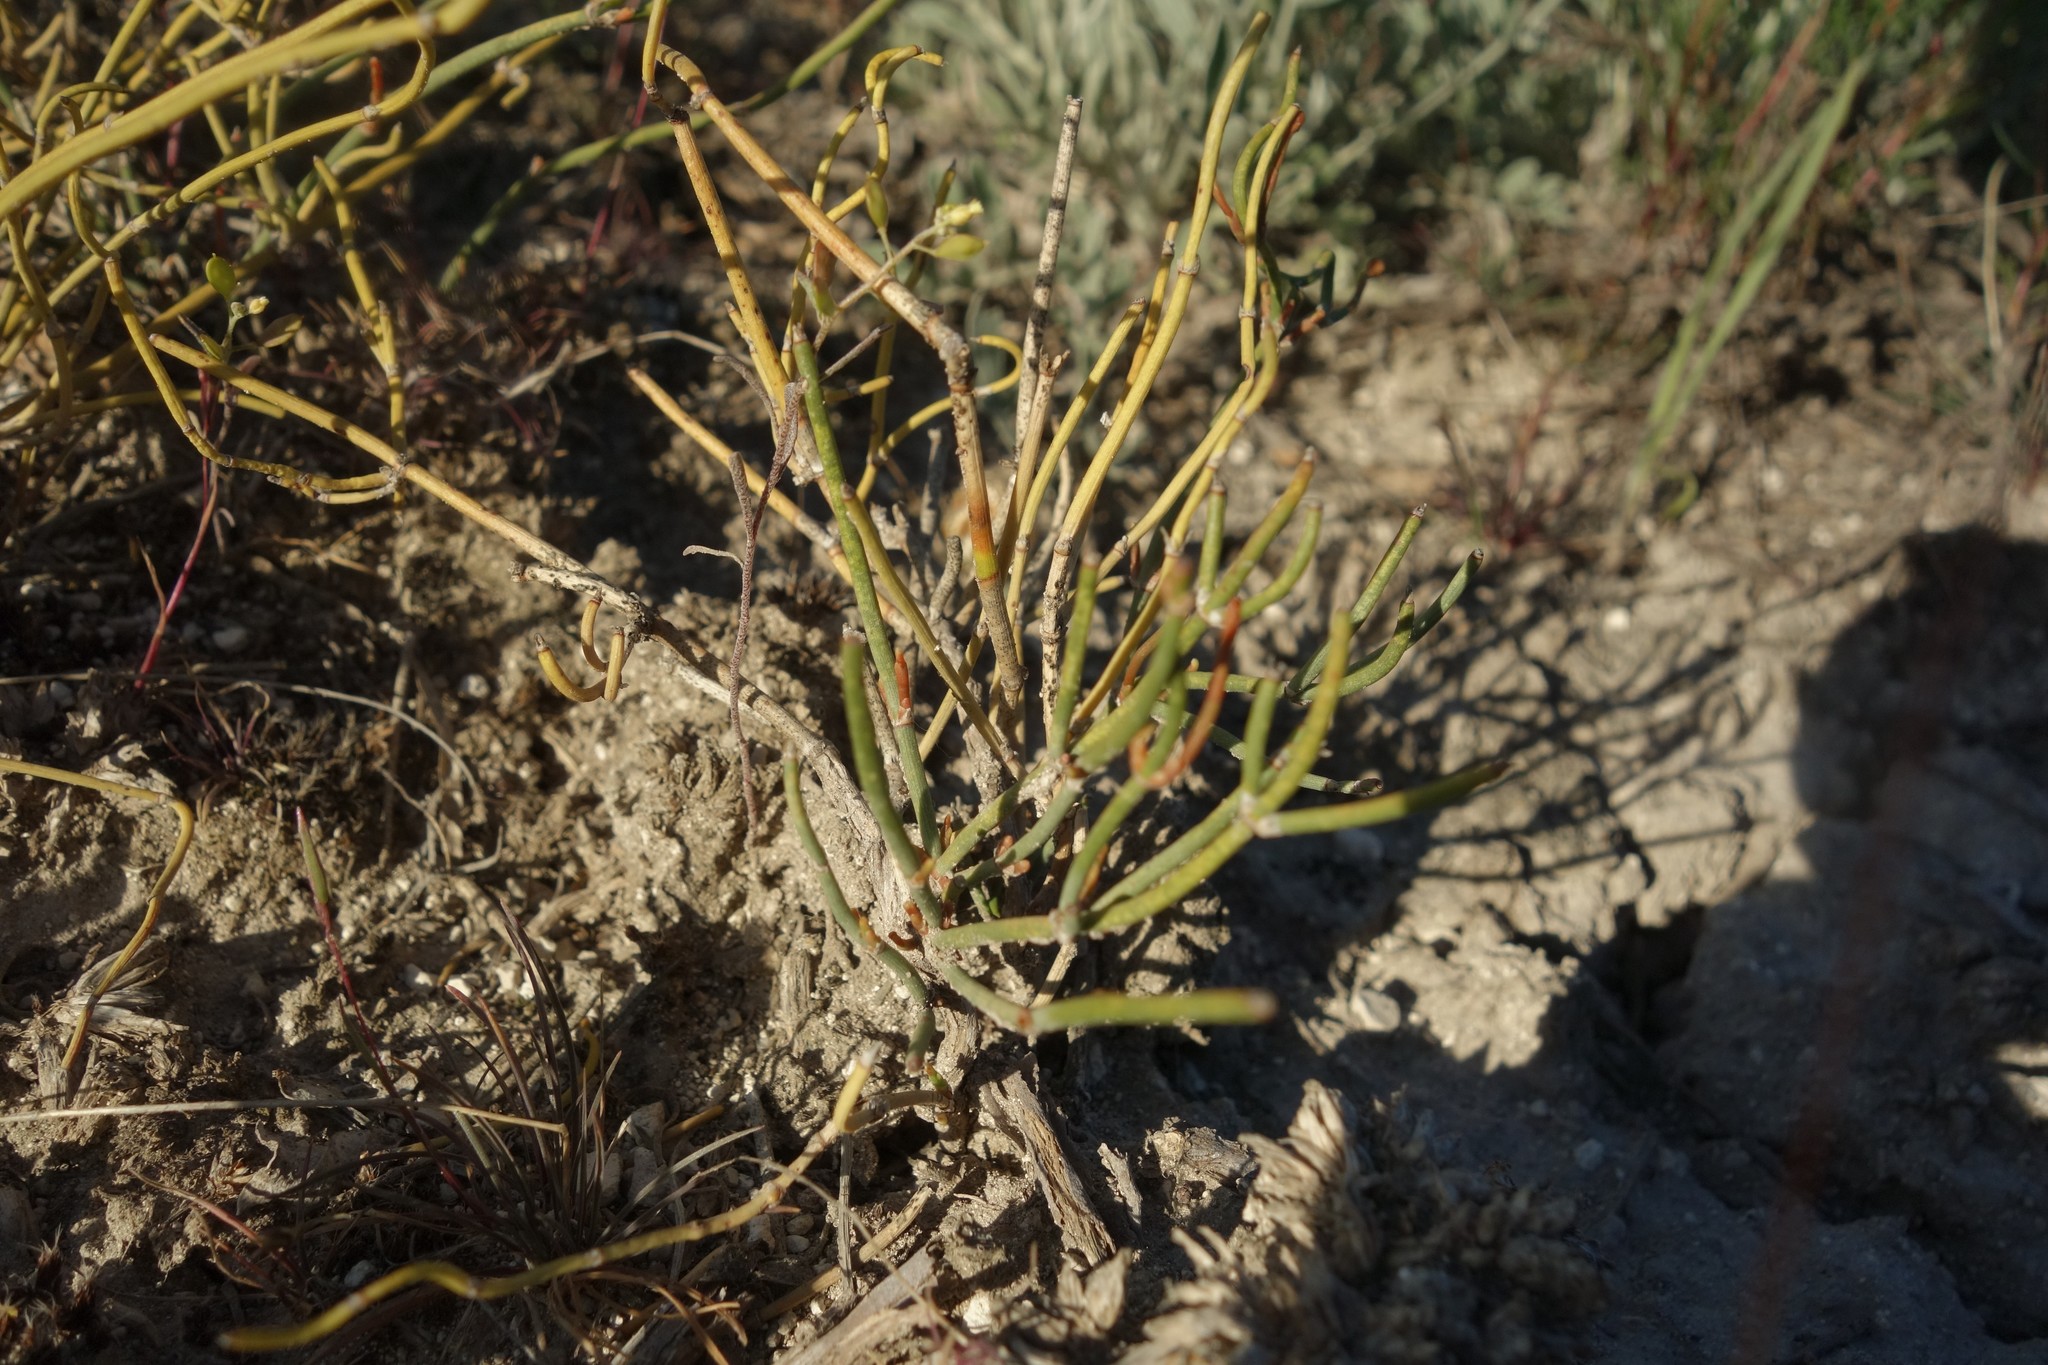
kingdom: Plantae
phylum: Tracheophyta
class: Gnetopsida
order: Ephedrales
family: Ephedraceae
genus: Ephedra
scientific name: Ephedra distachya
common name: Sea grape
